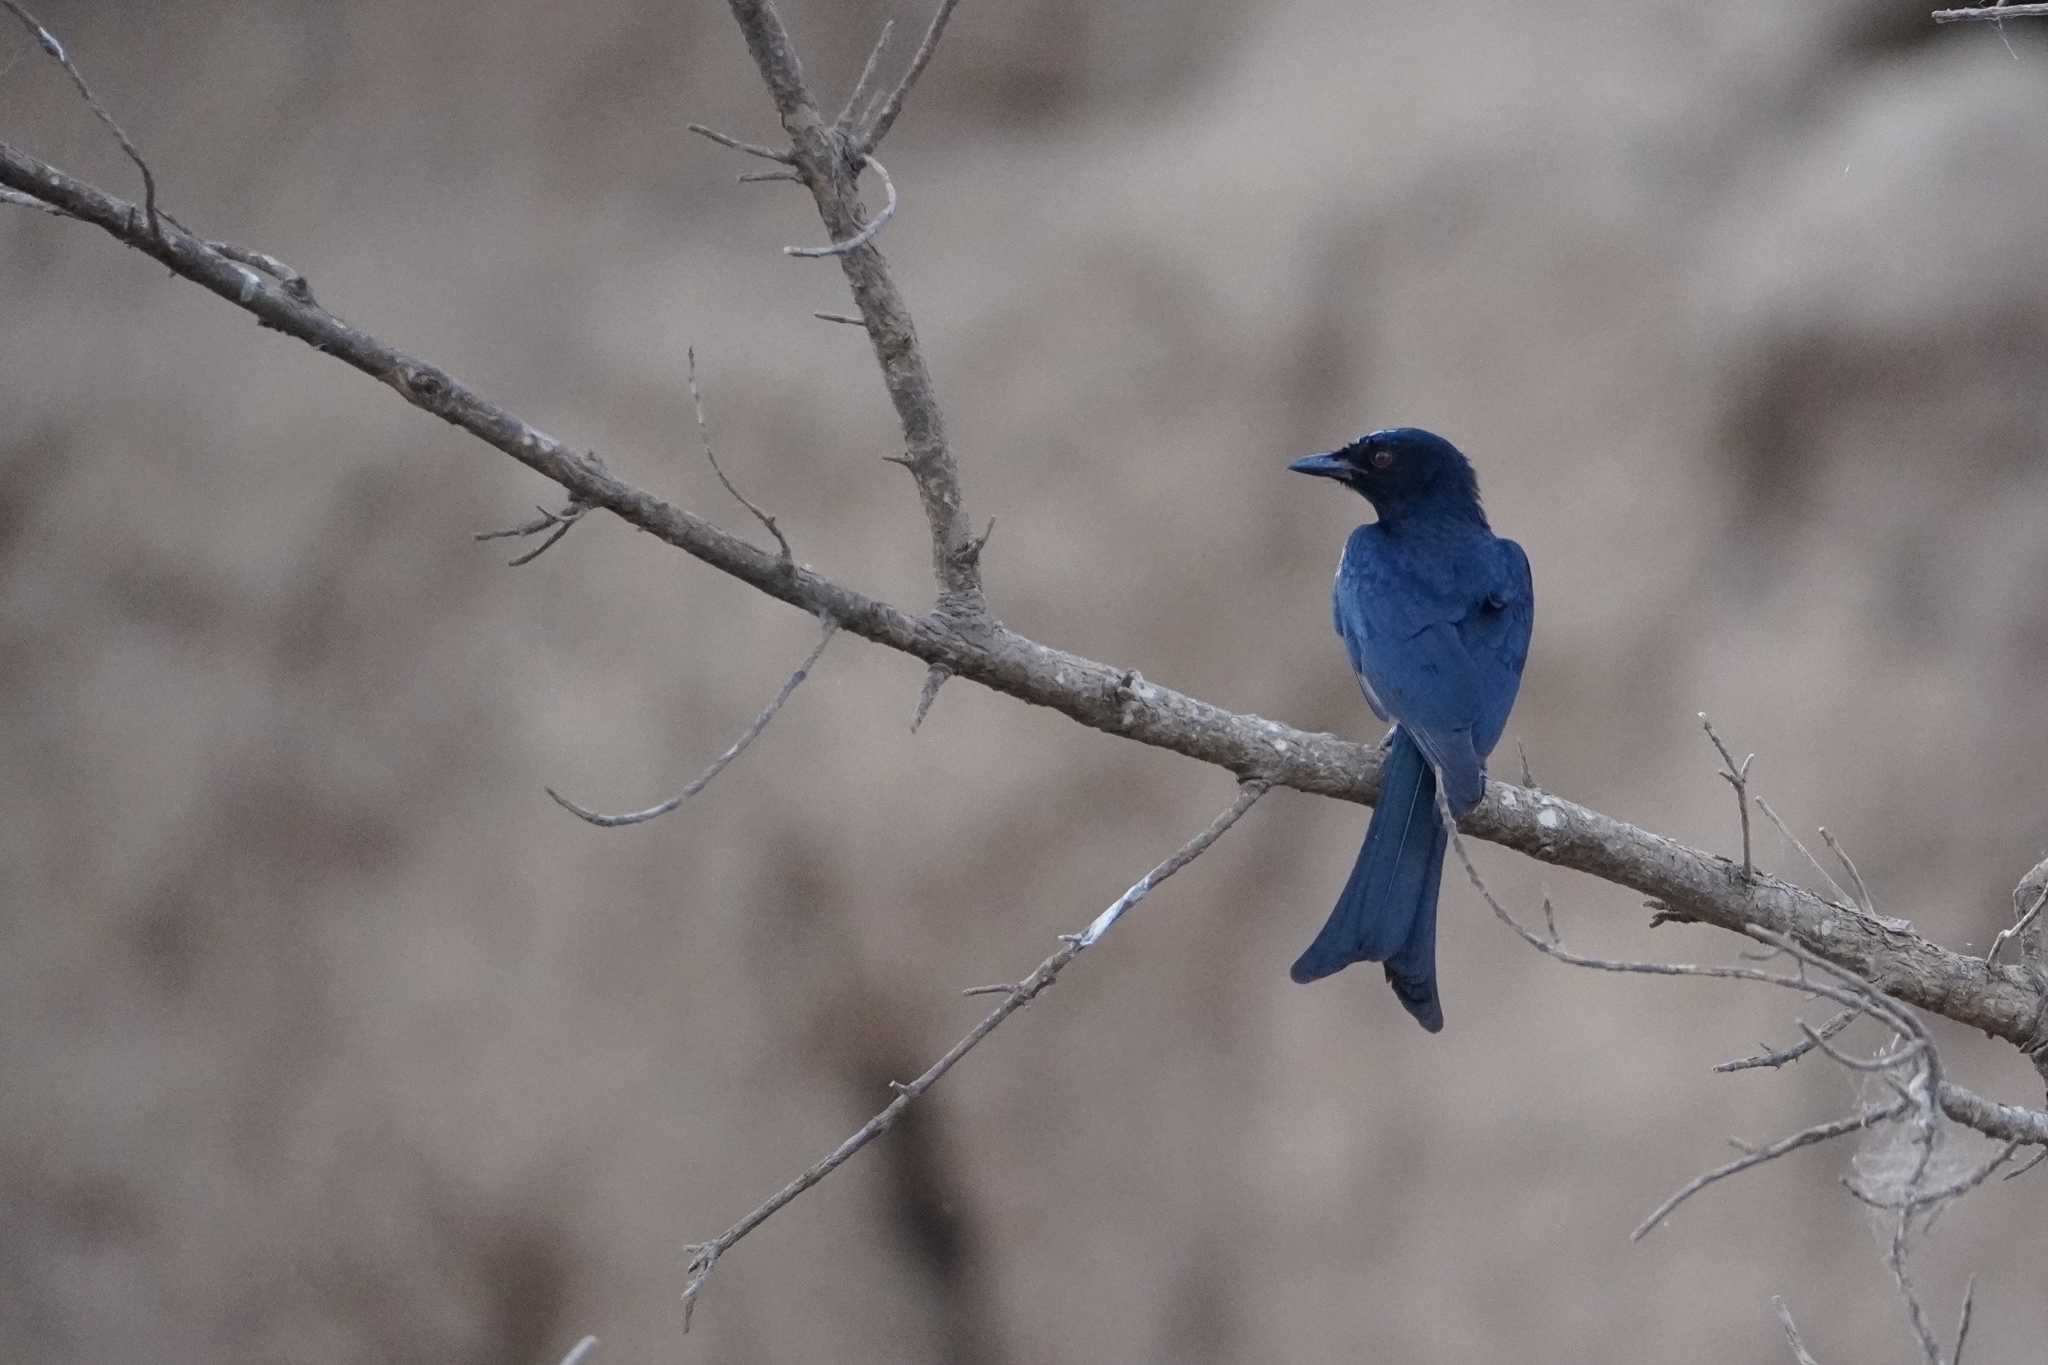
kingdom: Animalia
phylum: Chordata
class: Aves
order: Passeriformes
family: Dicruridae
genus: Dicrurus
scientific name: Dicrurus adsimilis
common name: Fork-tailed drongo
